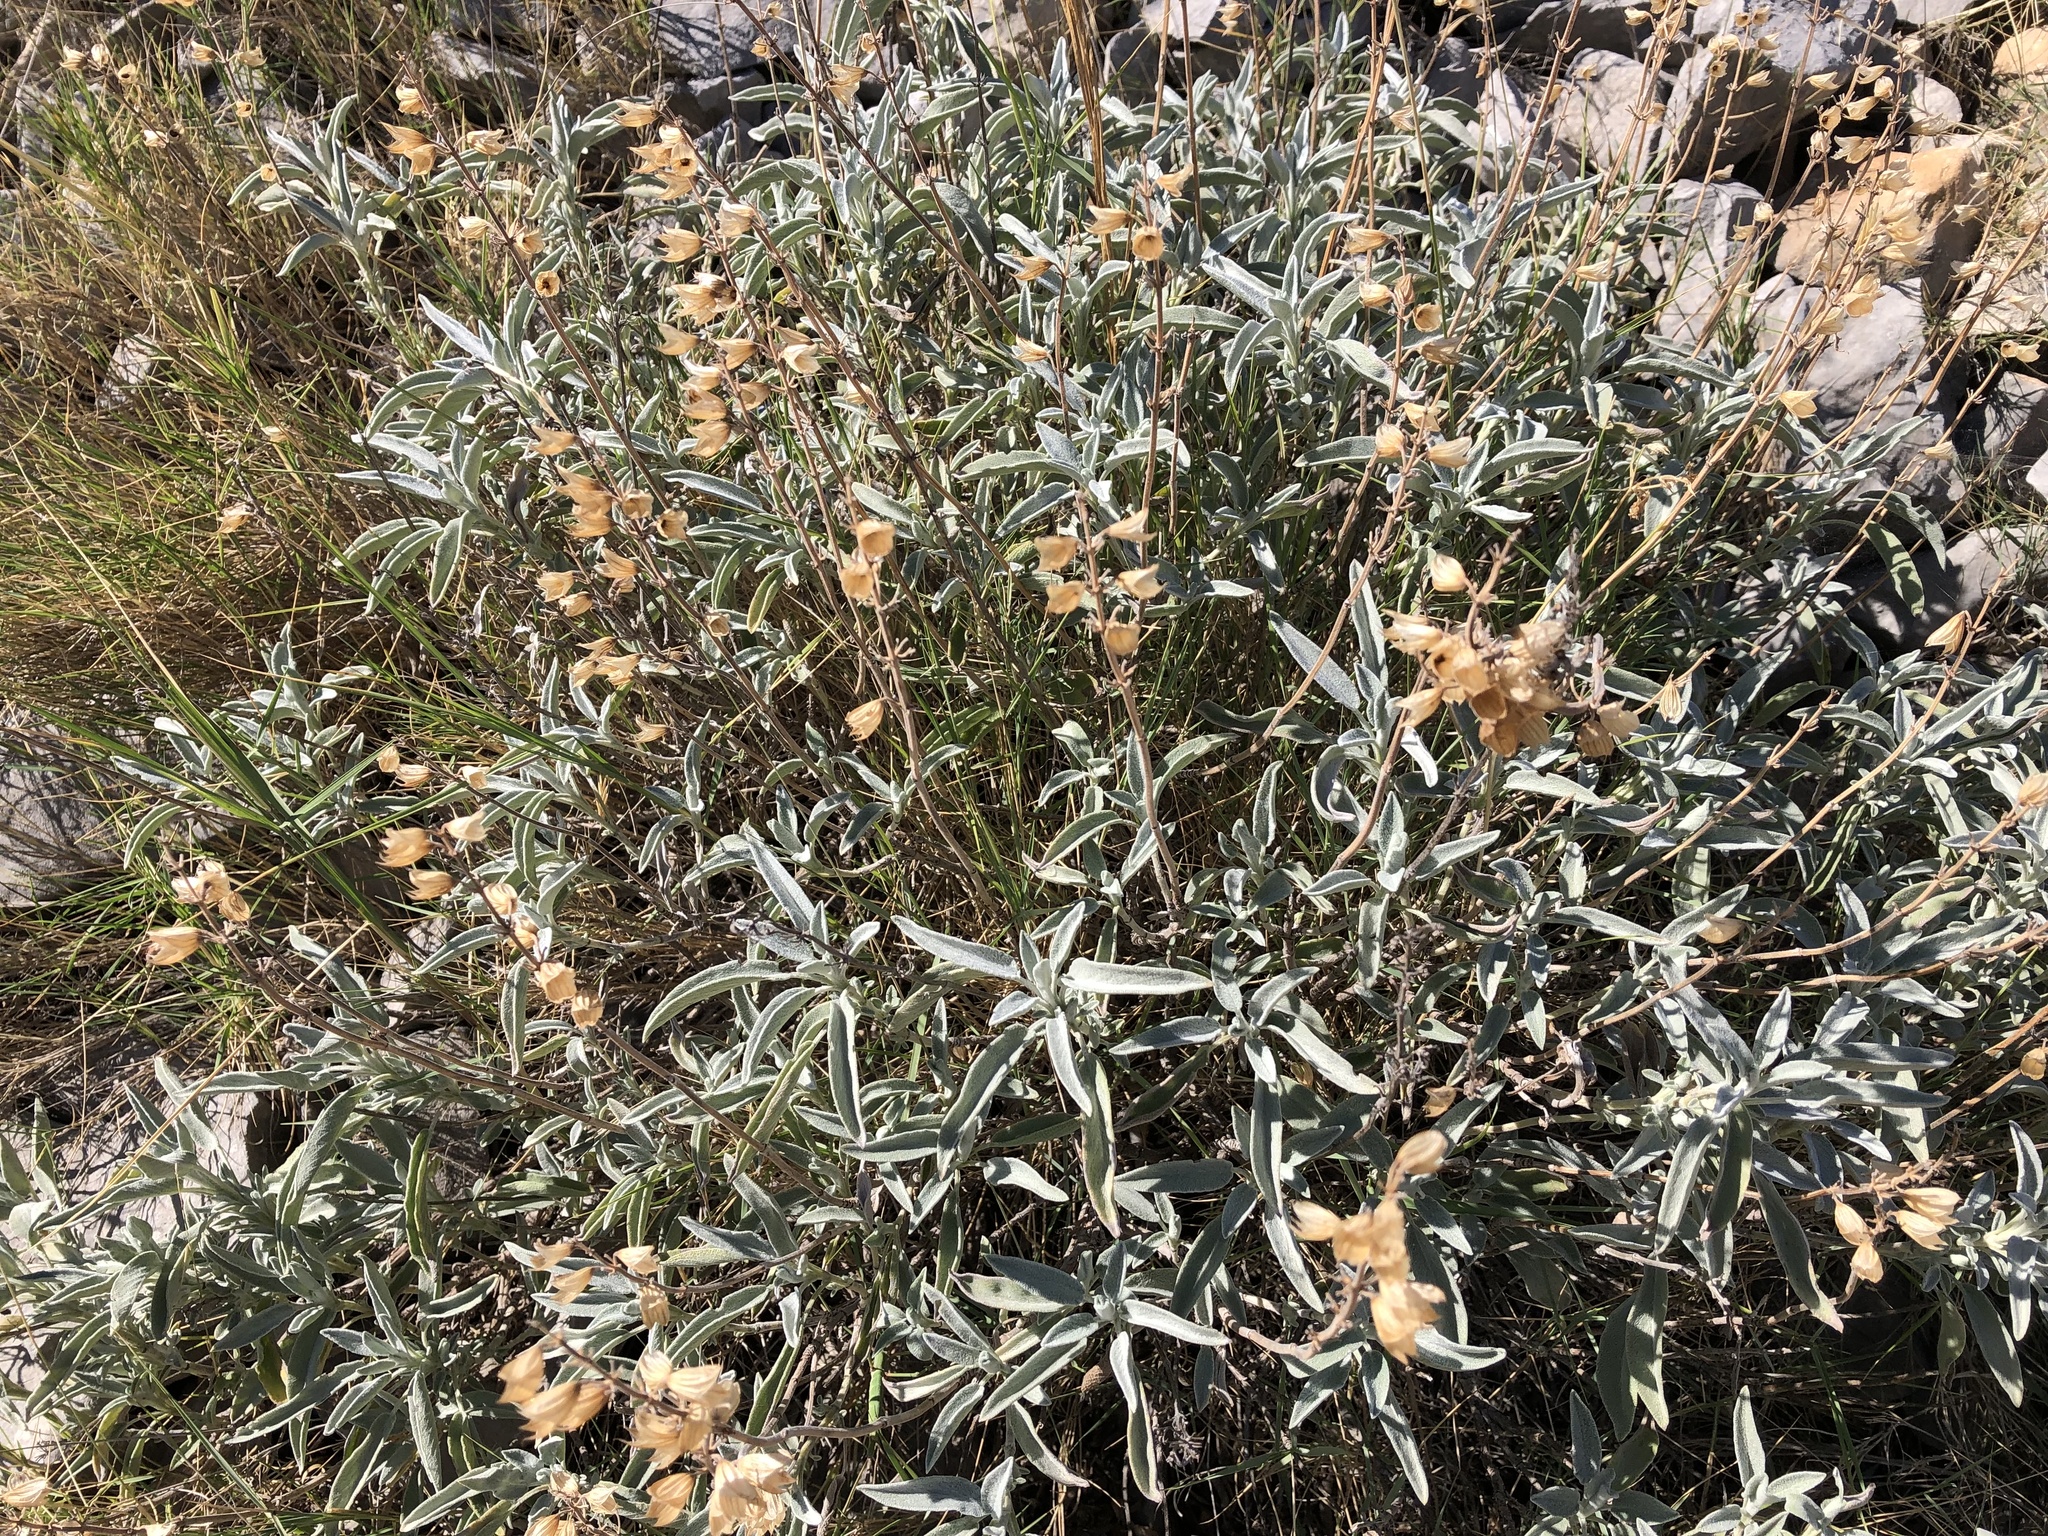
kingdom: Plantae
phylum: Tracheophyta
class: Magnoliopsida
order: Lamiales
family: Lamiaceae
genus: Salvia
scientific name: Salvia officinalis
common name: Sage
